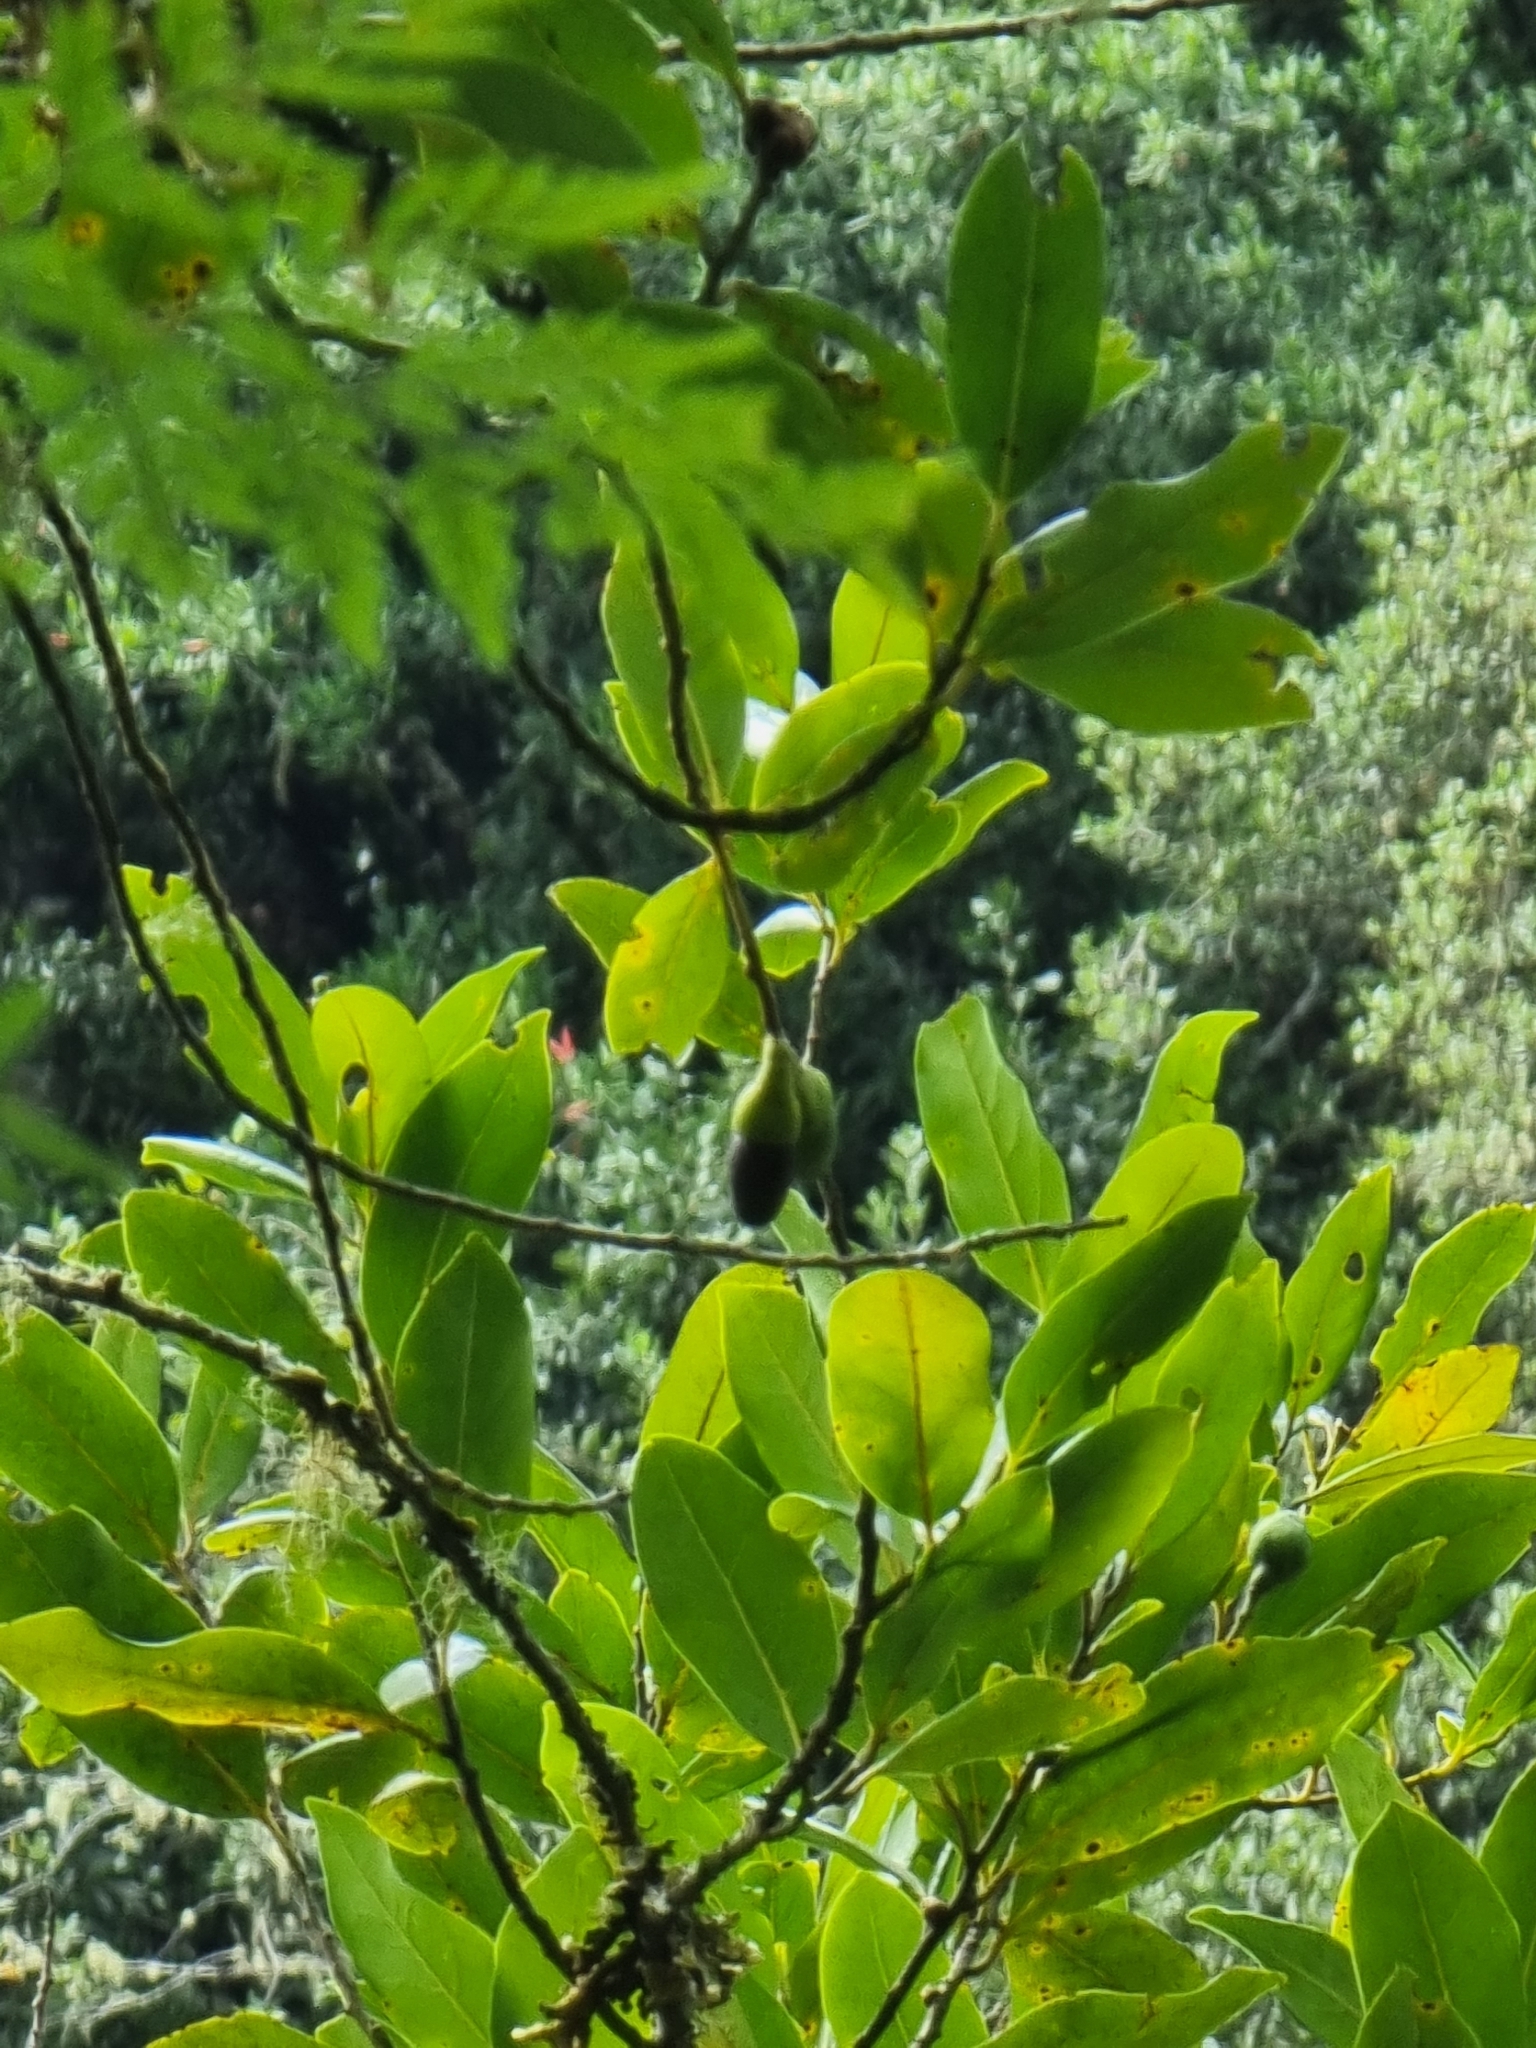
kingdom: Plantae
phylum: Tracheophyta
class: Magnoliopsida
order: Laurales
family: Lauraceae
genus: Mespilodaphne
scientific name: Mespilodaphne foetens
